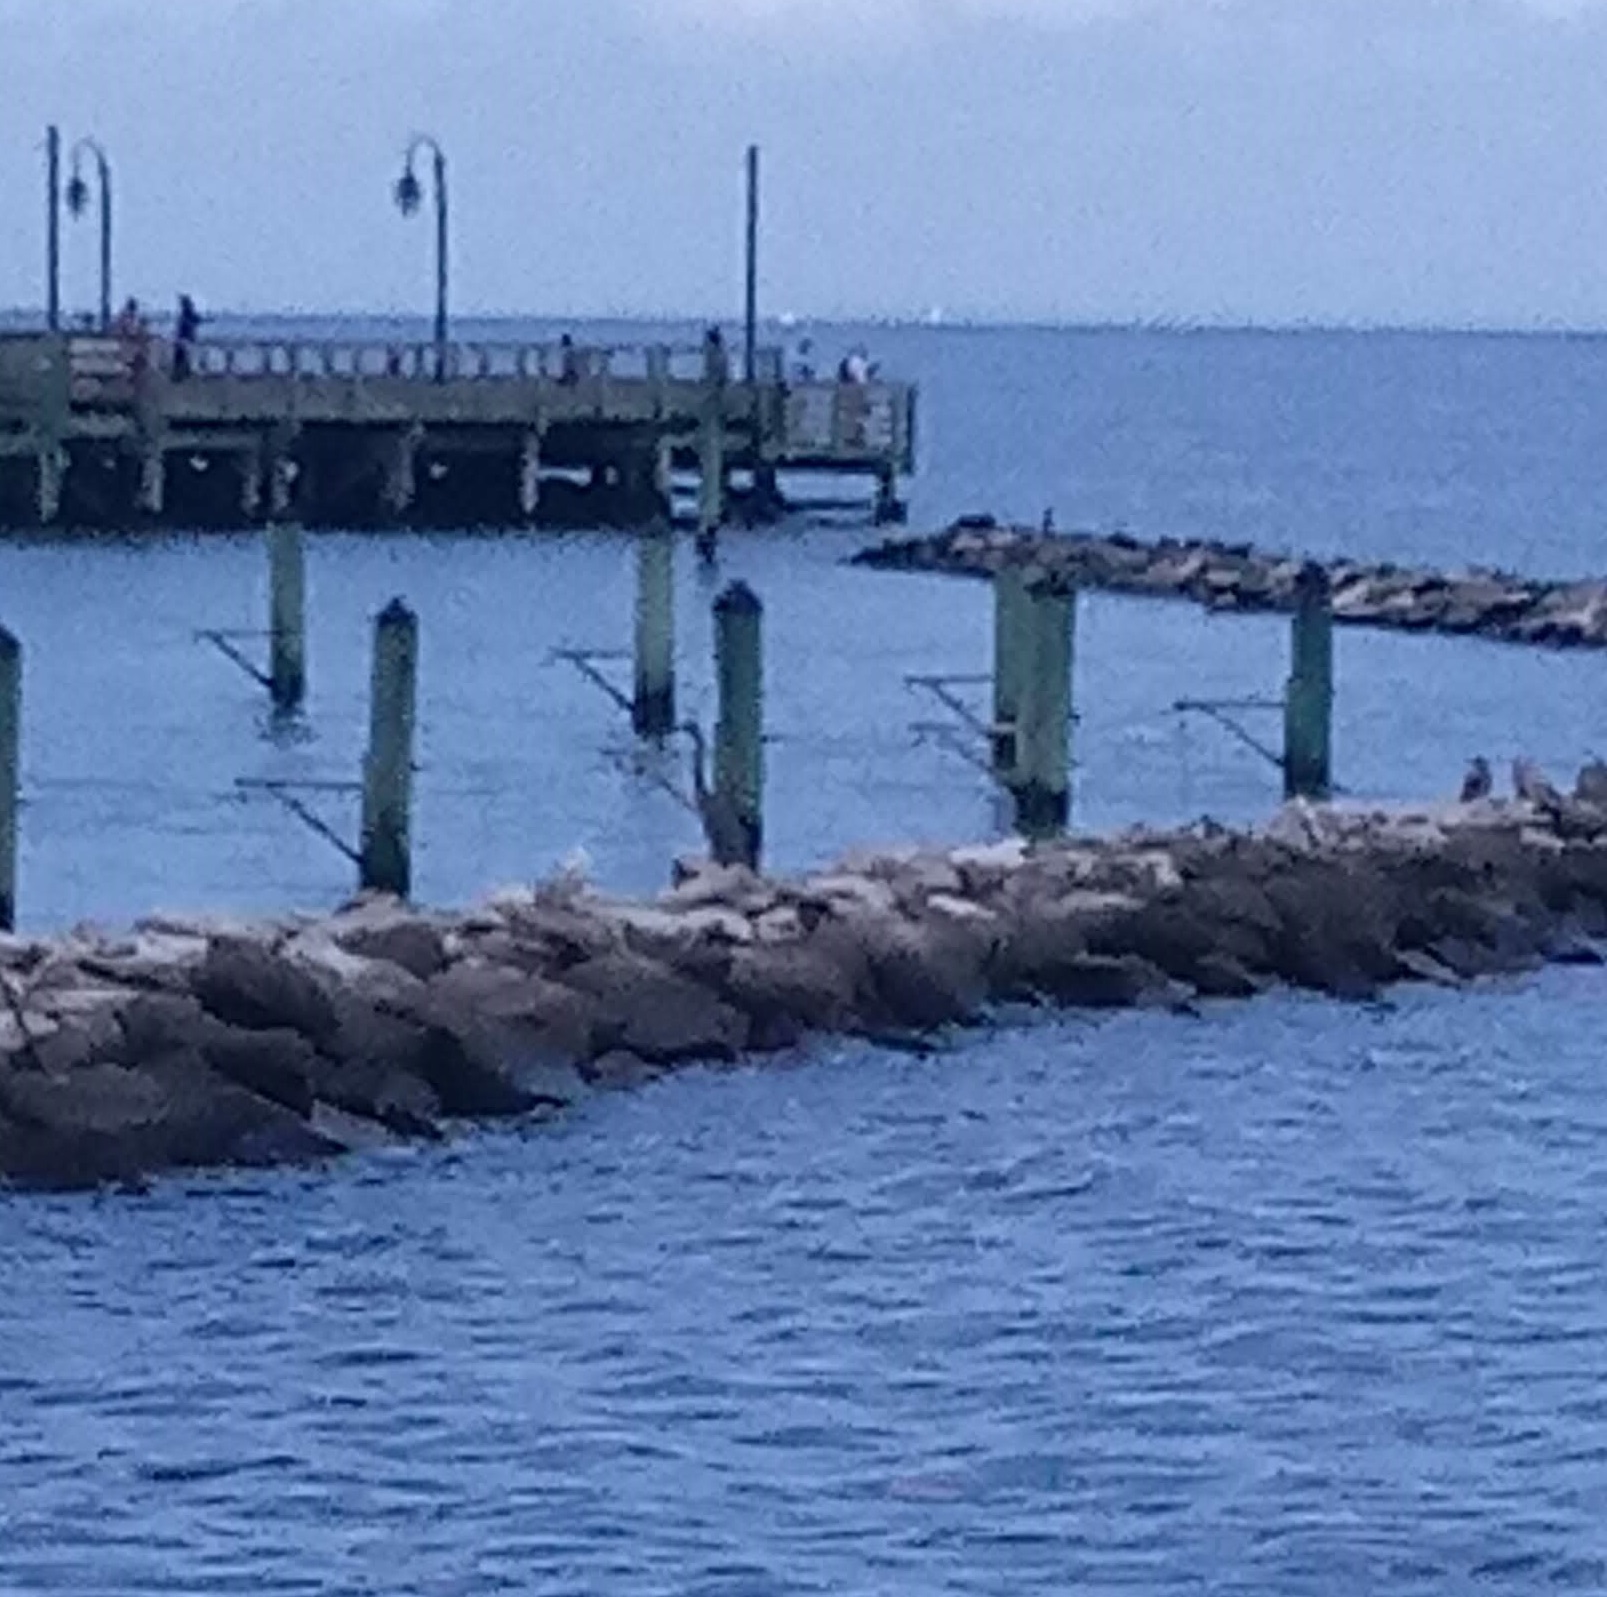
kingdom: Animalia
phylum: Chordata
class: Aves
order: Pelecaniformes
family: Ardeidae
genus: Ardea
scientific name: Ardea herodias
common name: Great blue heron
